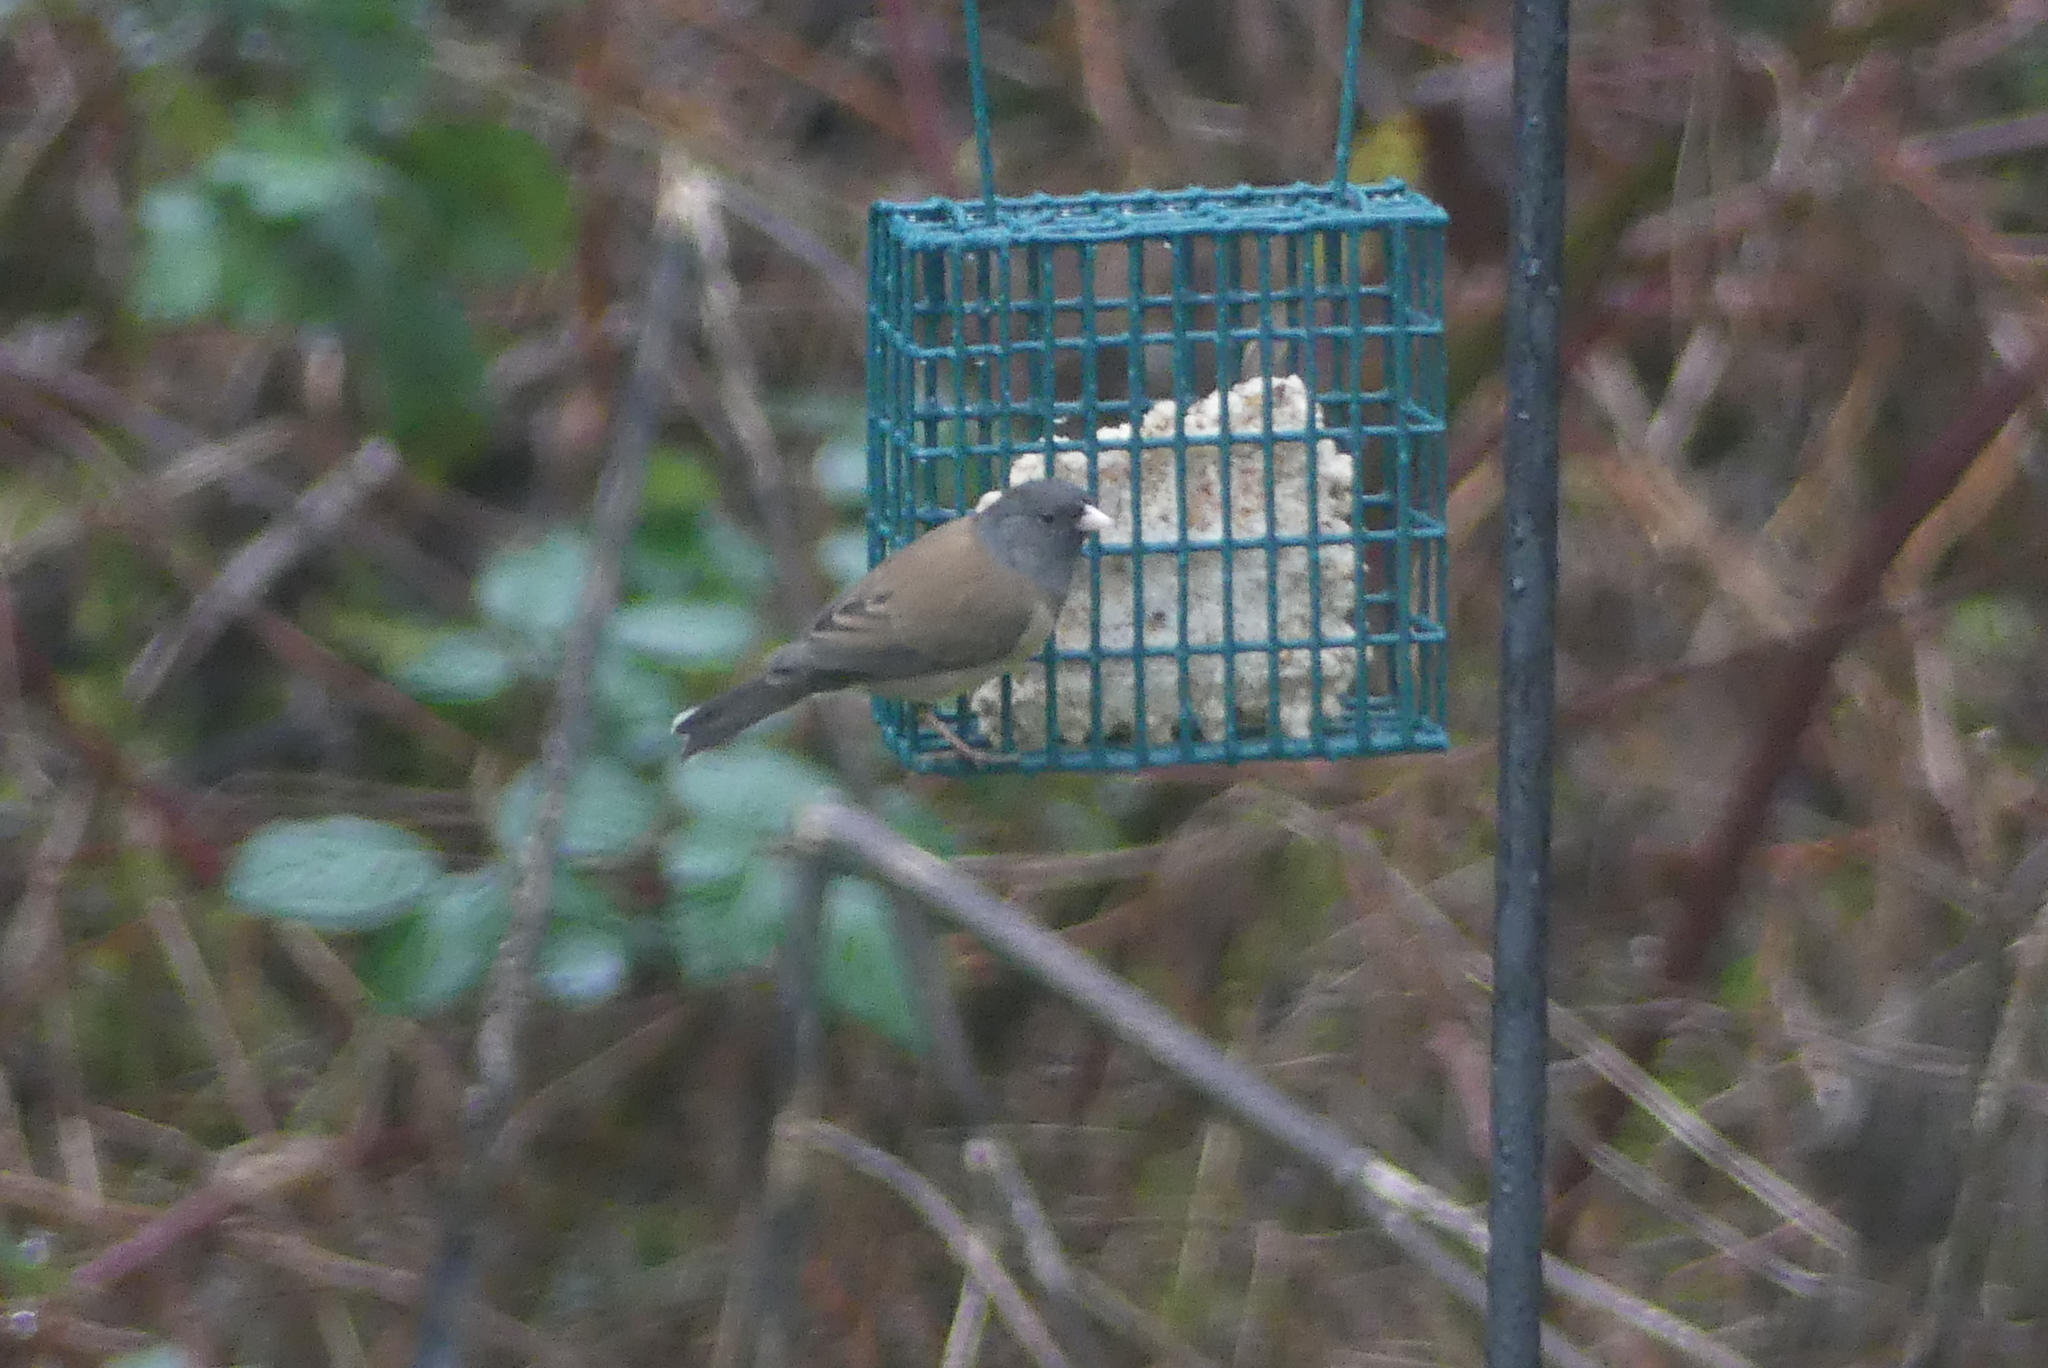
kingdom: Animalia
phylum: Chordata
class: Aves
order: Passeriformes
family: Passerellidae
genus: Junco
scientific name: Junco hyemalis
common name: Dark-eyed junco
